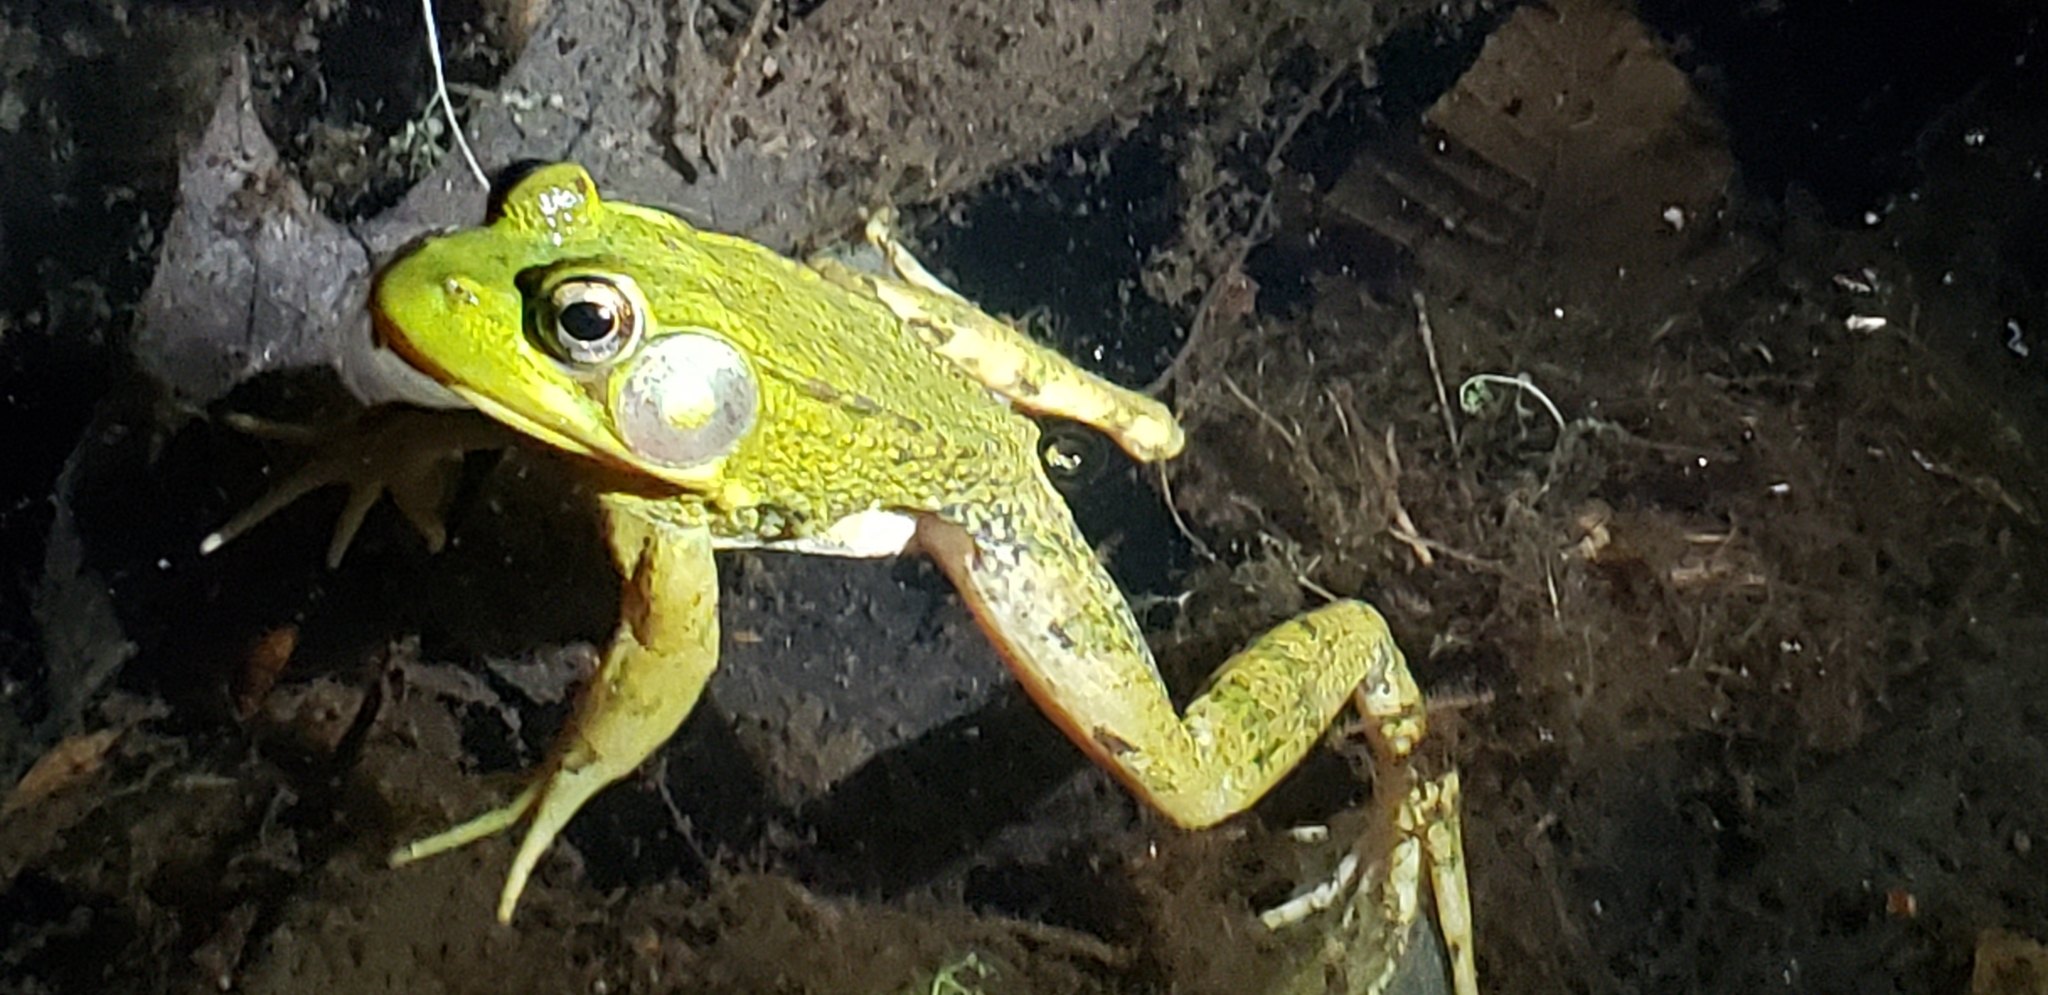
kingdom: Animalia
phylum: Chordata
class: Amphibia
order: Anura
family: Ranidae
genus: Lithobates
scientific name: Lithobates clamitans
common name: Green frog
